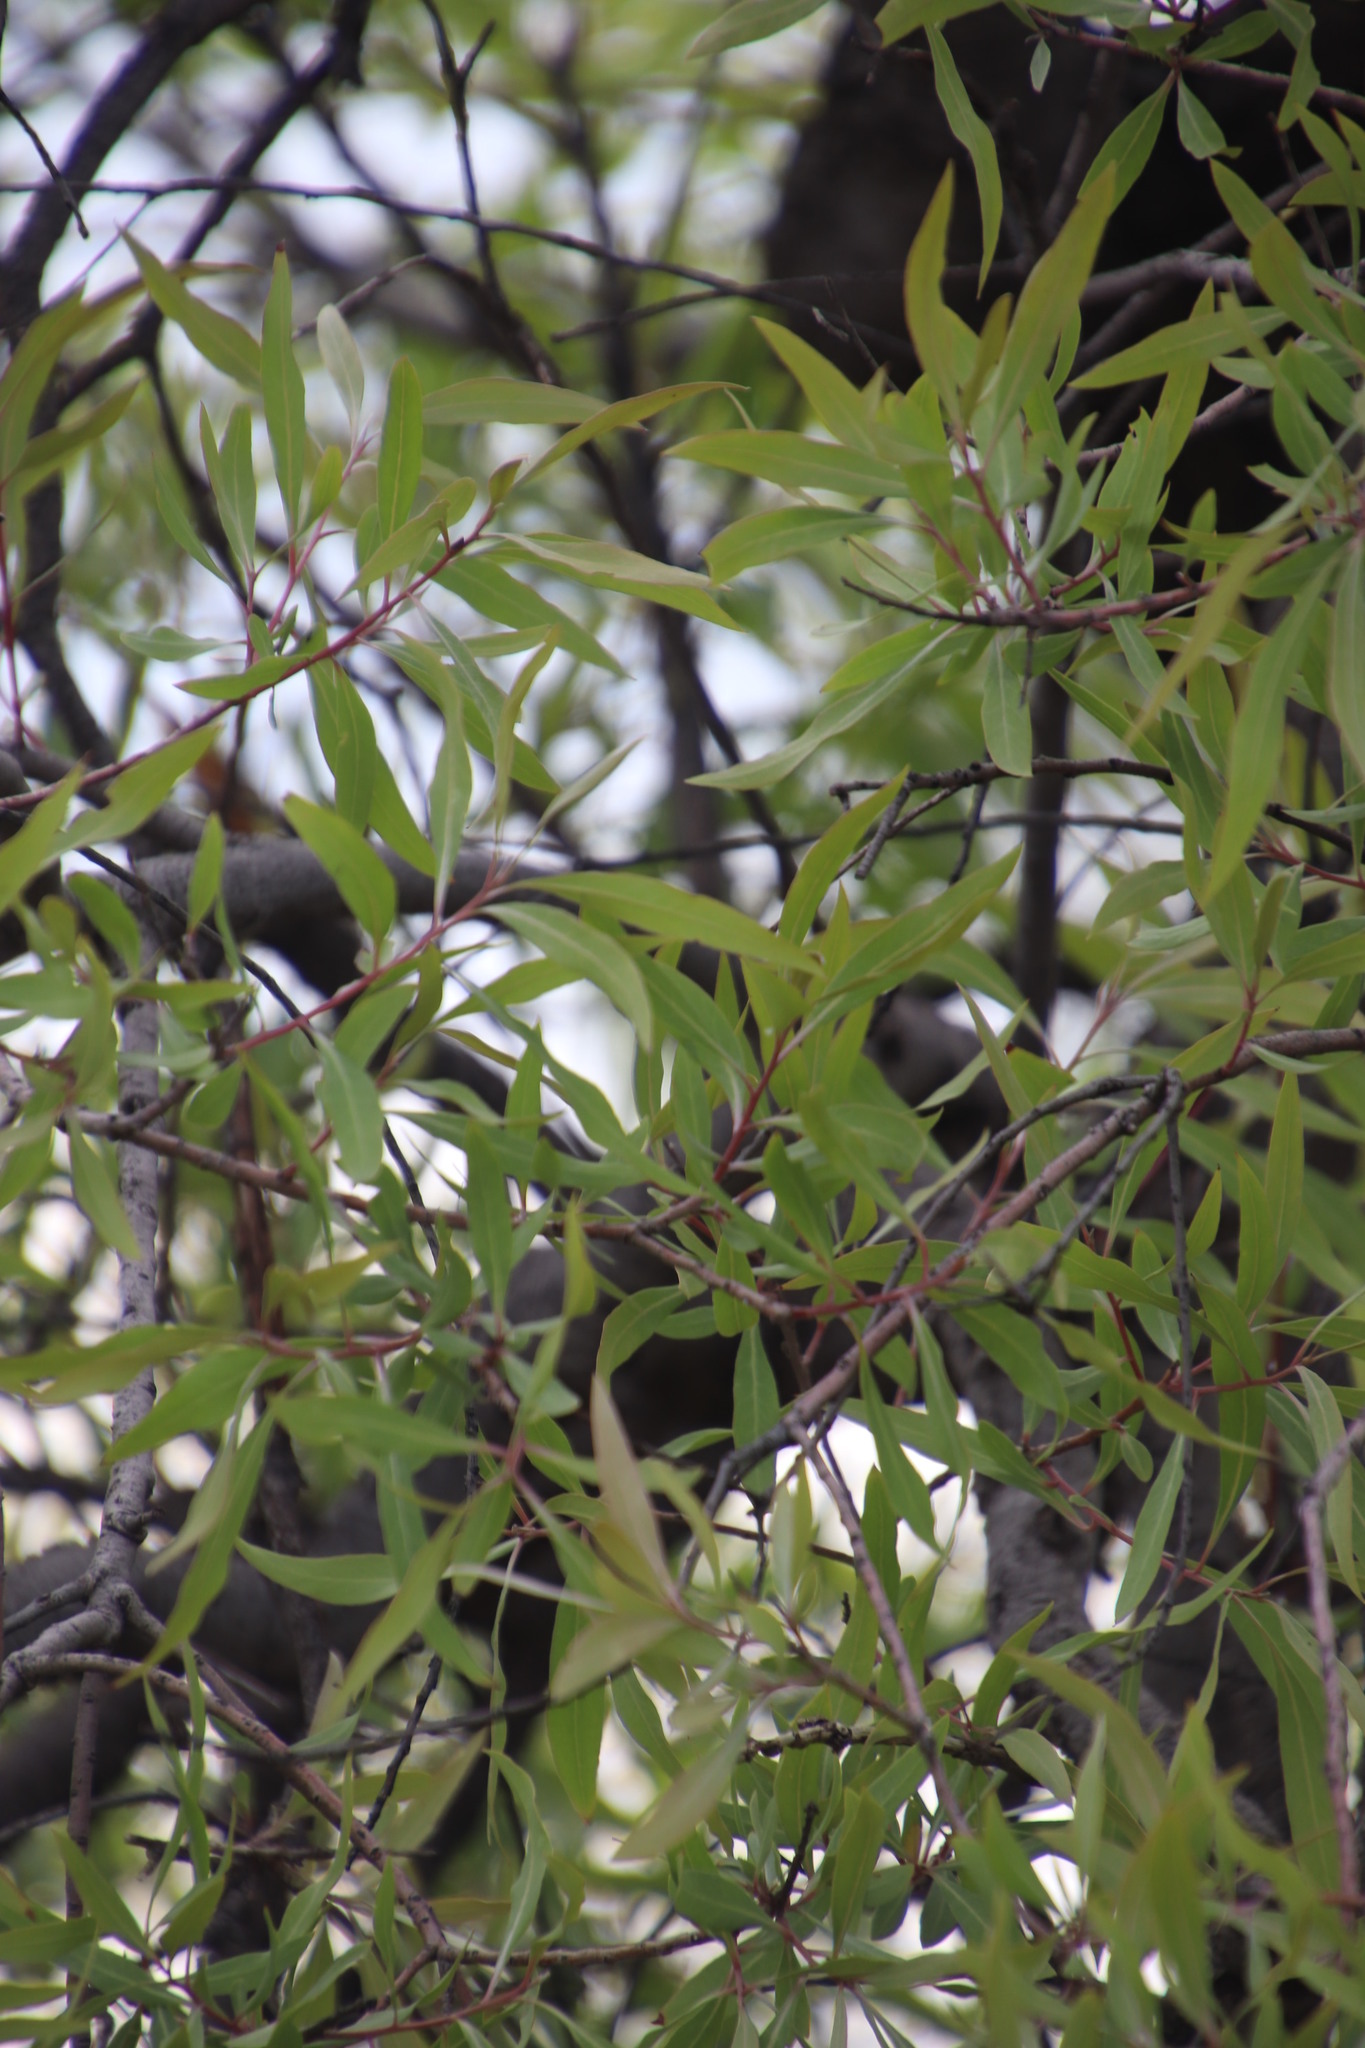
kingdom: Plantae
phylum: Tracheophyta
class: Magnoliopsida
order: Proteales
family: Proteaceae
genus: Faurea
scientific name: Faurea saligna
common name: African bean
